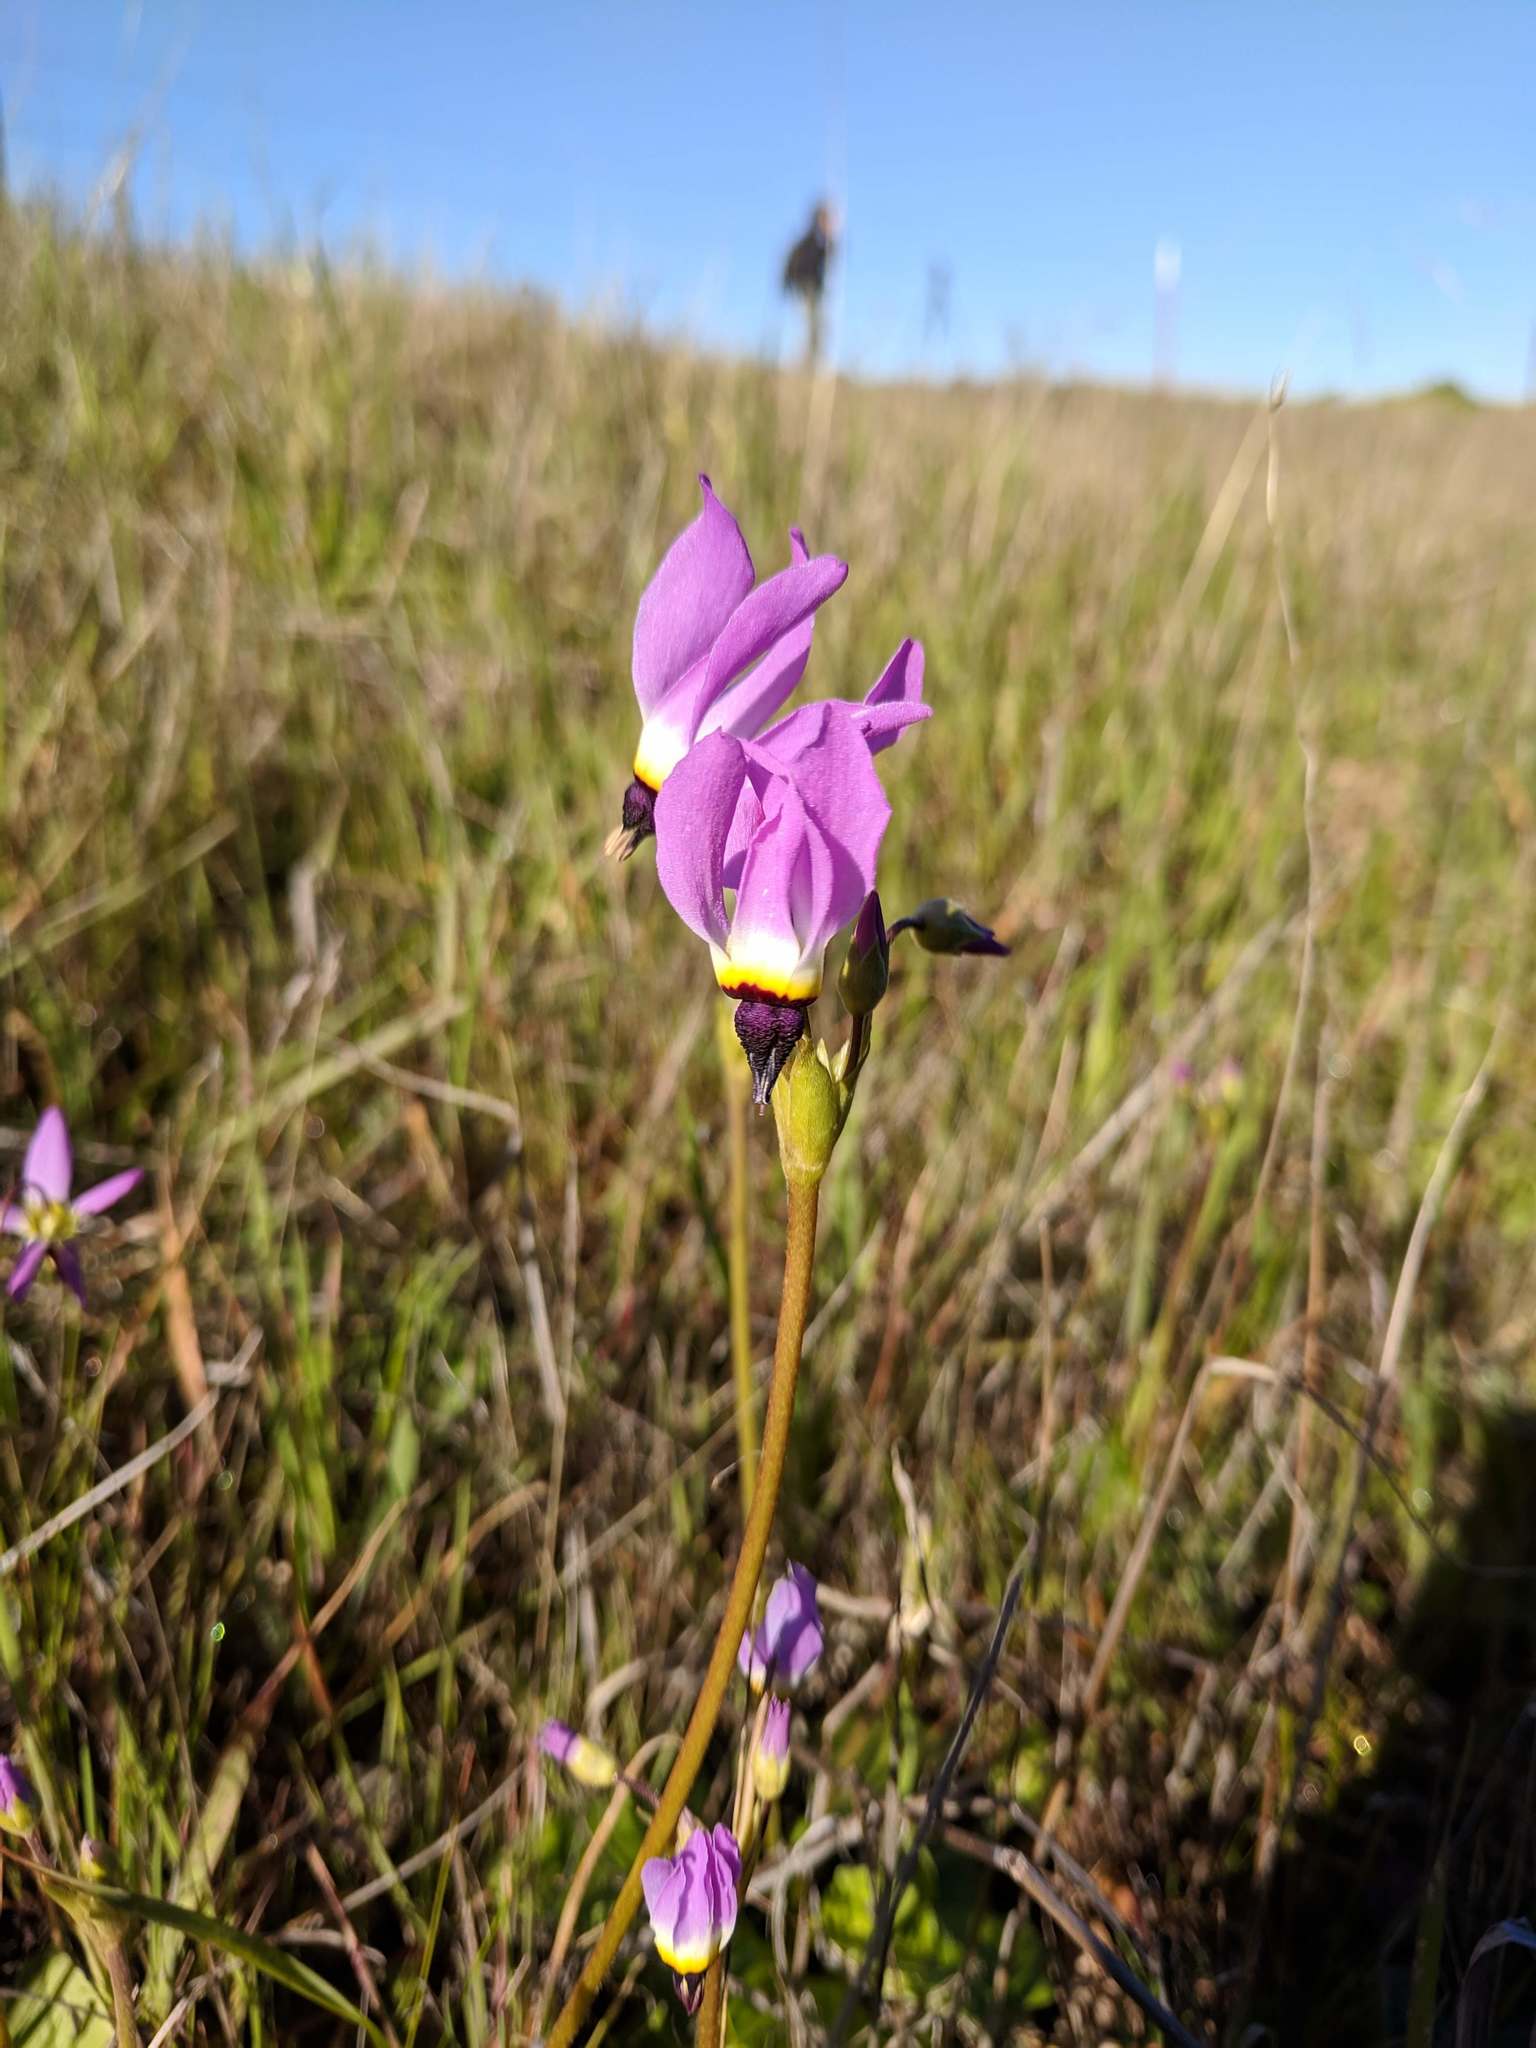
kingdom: Plantae
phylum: Tracheophyta
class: Magnoliopsida
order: Ericales
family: Primulaceae
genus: Dodecatheon
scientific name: Dodecatheon clevelandii
